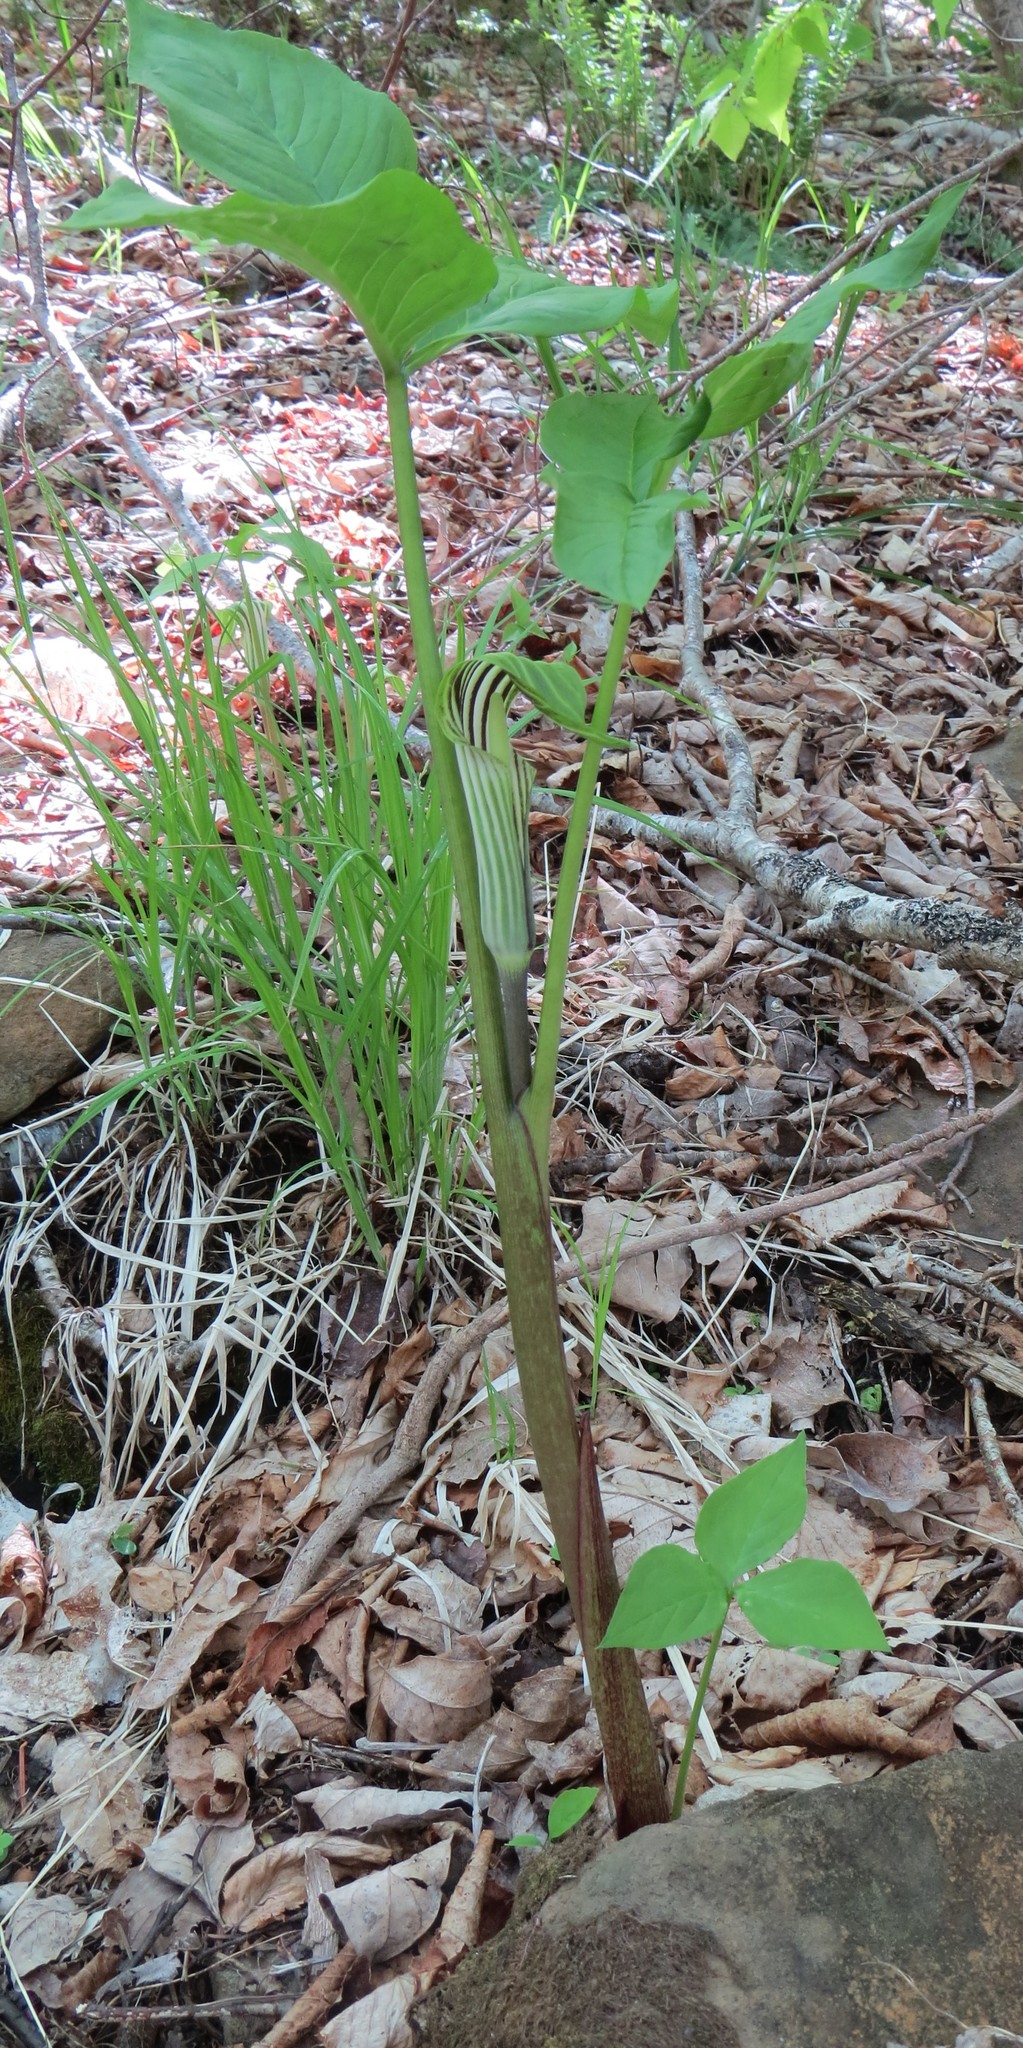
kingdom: Plantae
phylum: Tracheophyta
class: Liliopsida
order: Alismatales
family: Araceae
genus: Arisaema
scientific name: Arisaema stewardsonii
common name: Swamp jack-in-the-pulpit
